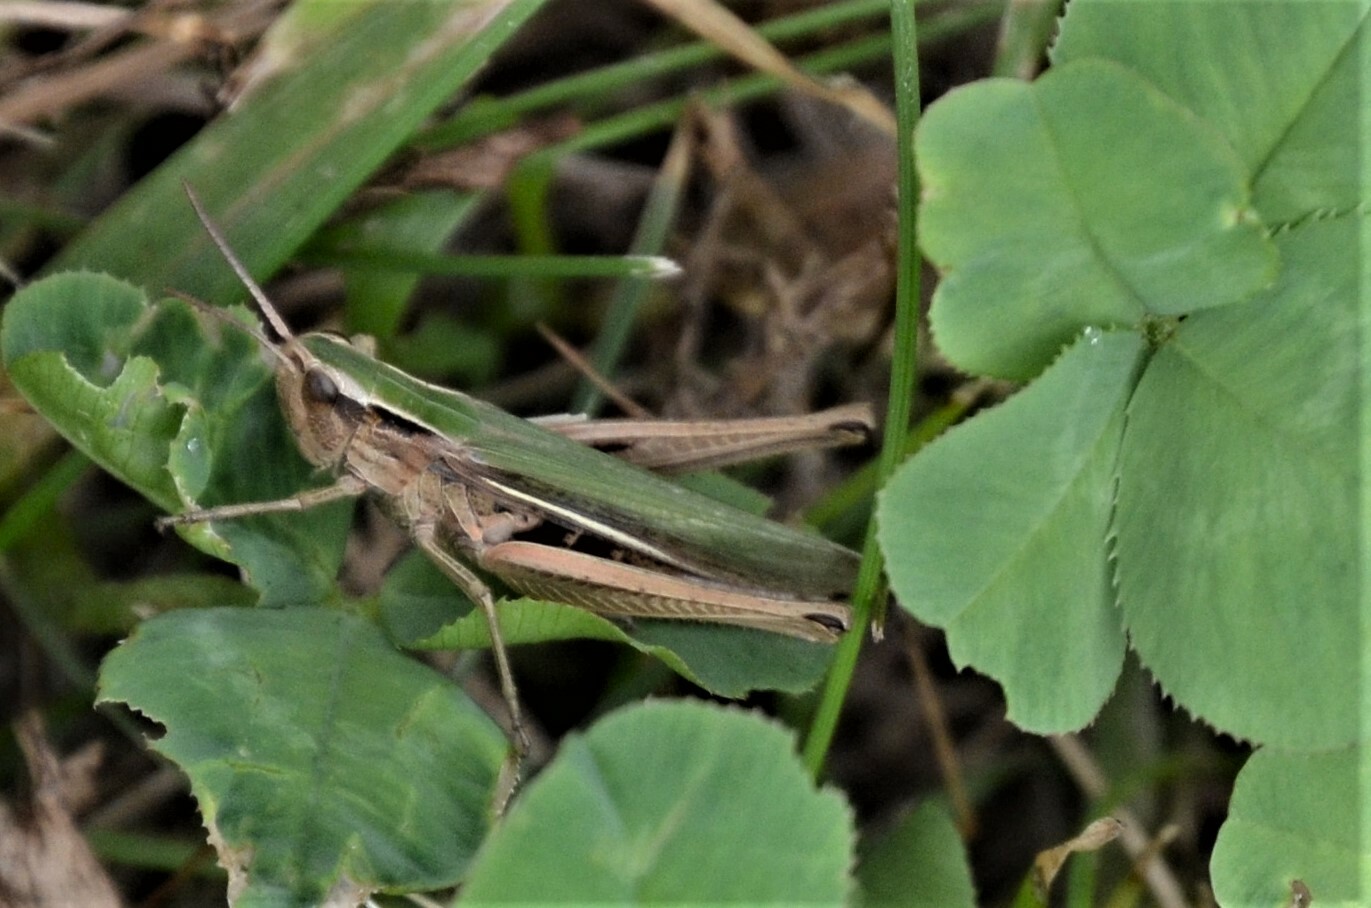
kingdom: Animalia
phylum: Arthropoda
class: Insecta
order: Orthoptera
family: Acrididae
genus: Chorthippus
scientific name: Chorthippus albomarginatus
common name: Lesser marsh grasshopper
